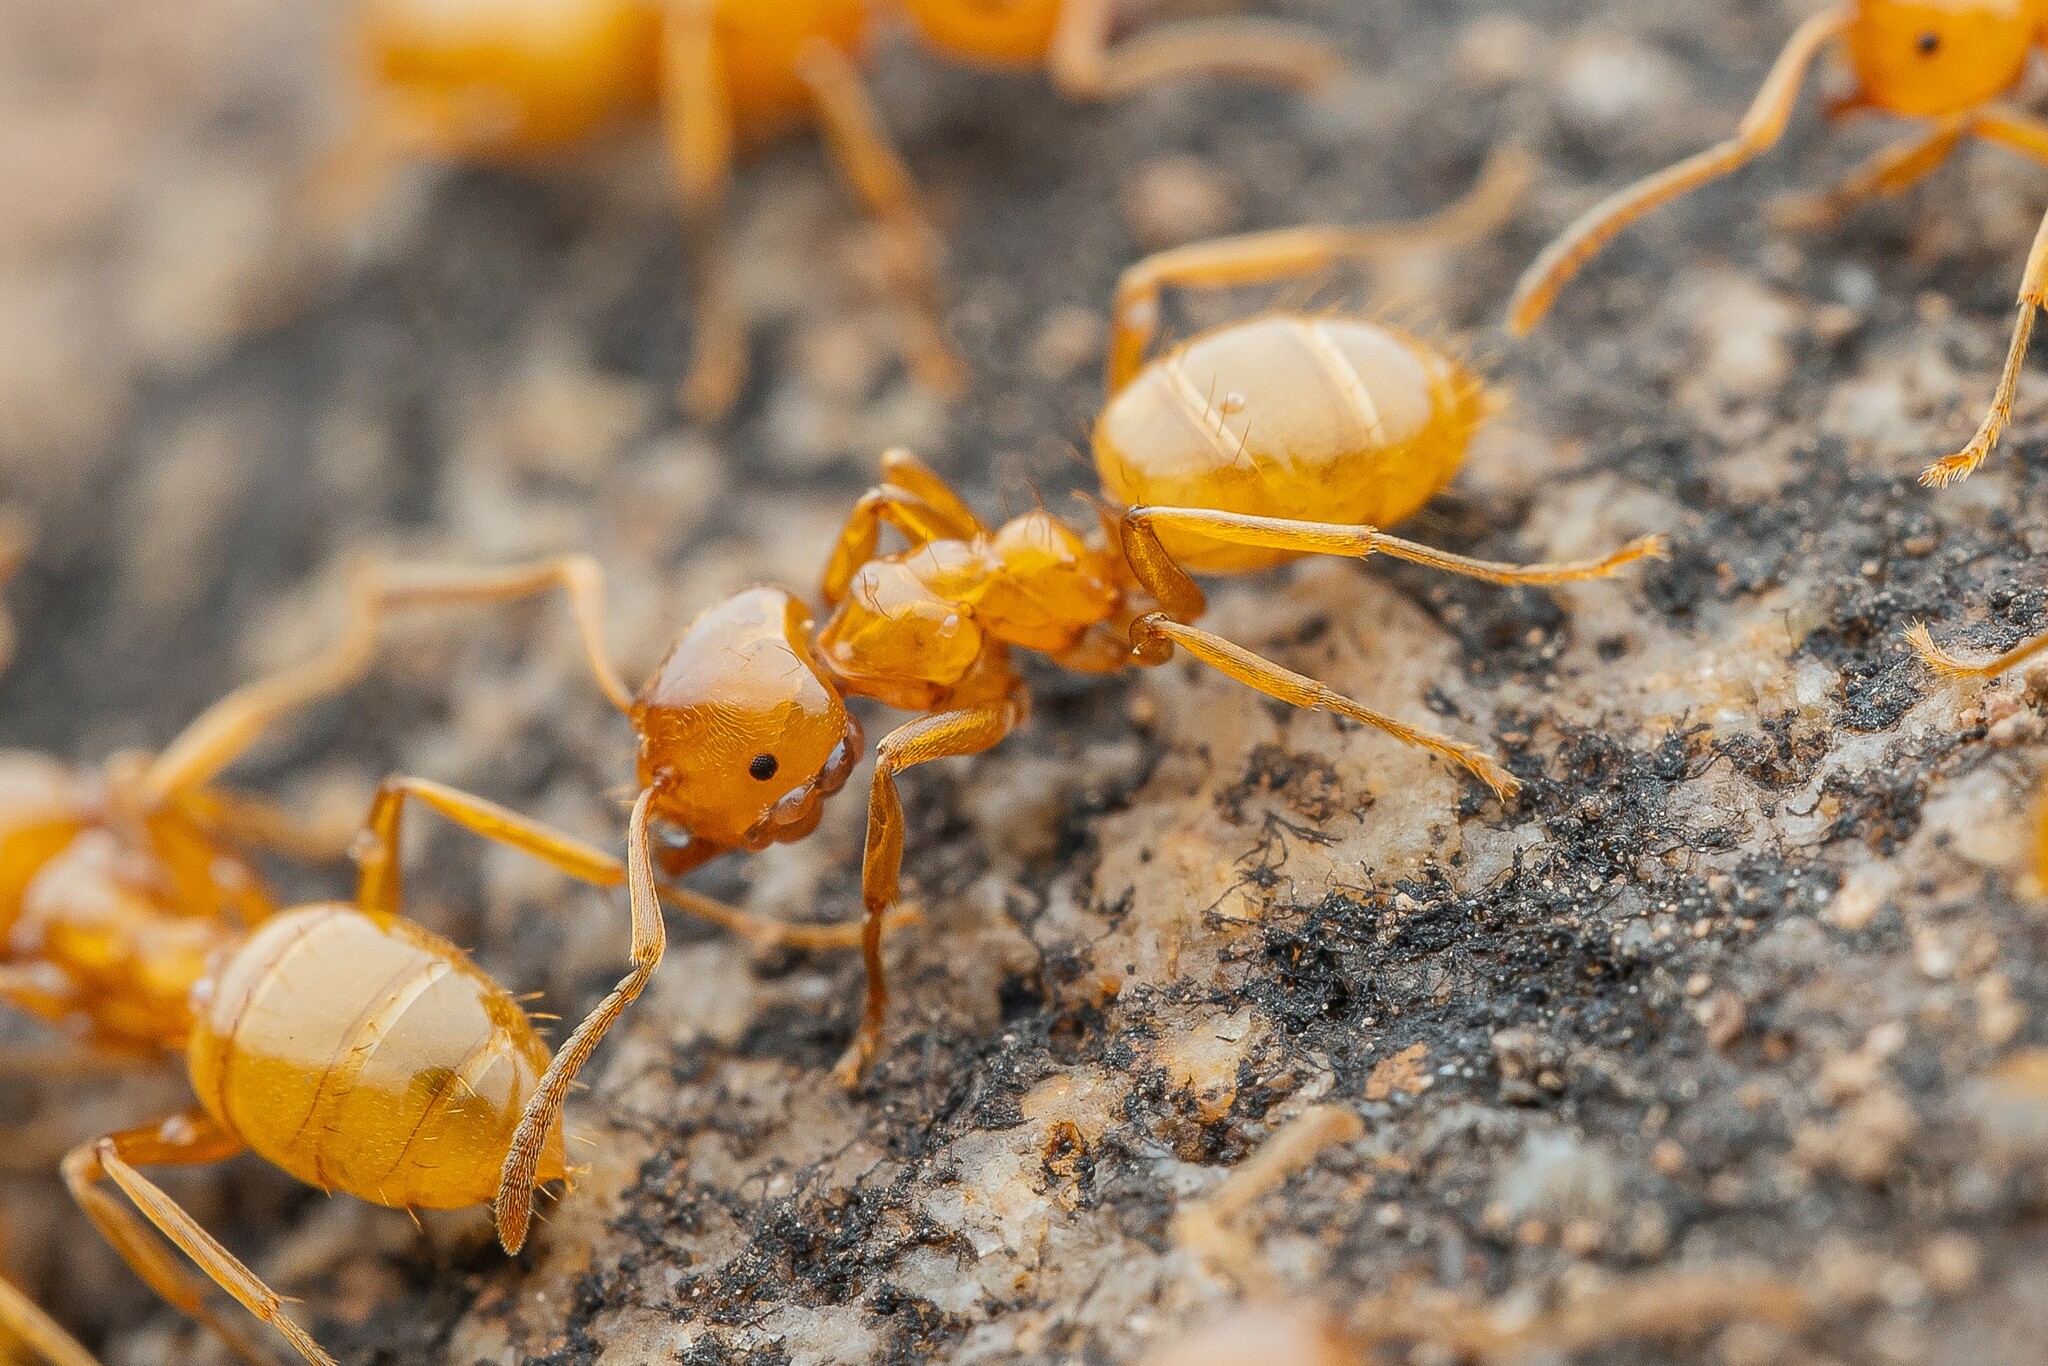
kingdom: Animalia
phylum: Arthropoda
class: Insecta
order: Hymenoptera
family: Formicidae
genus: Lasius
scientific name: Lasius arizonicus
